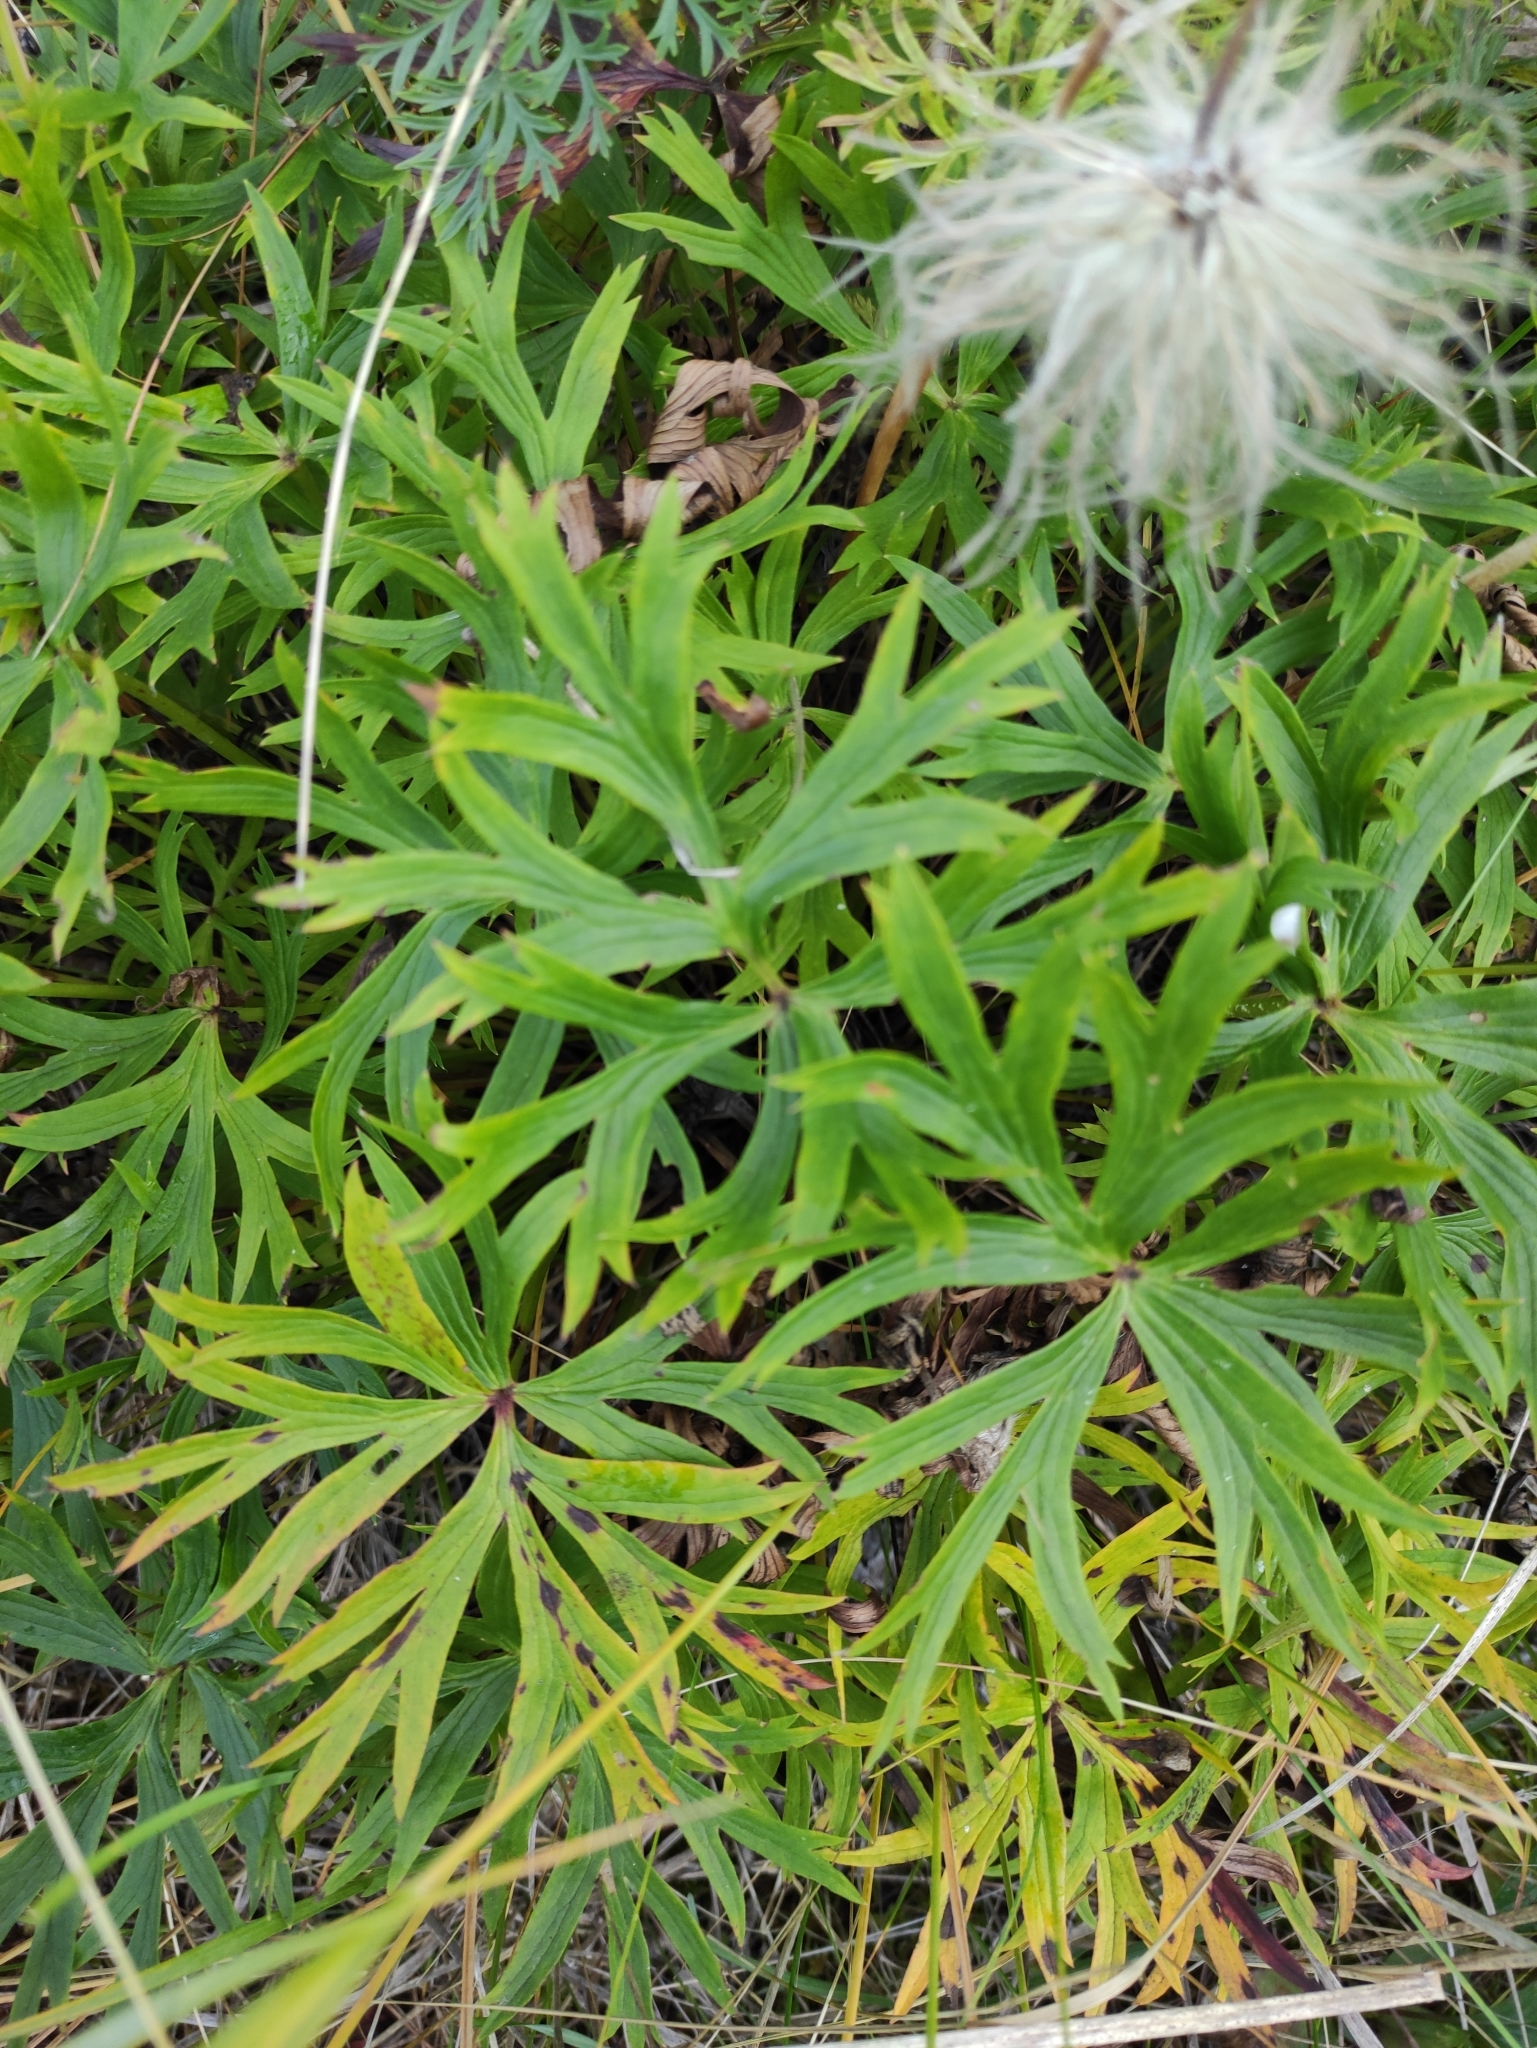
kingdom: Plantae
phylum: Tracheophyta
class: Magnoliopsida
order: Ranunculales
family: Ranunculaceae
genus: Pulsatilla
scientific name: Pulsatilla patens
